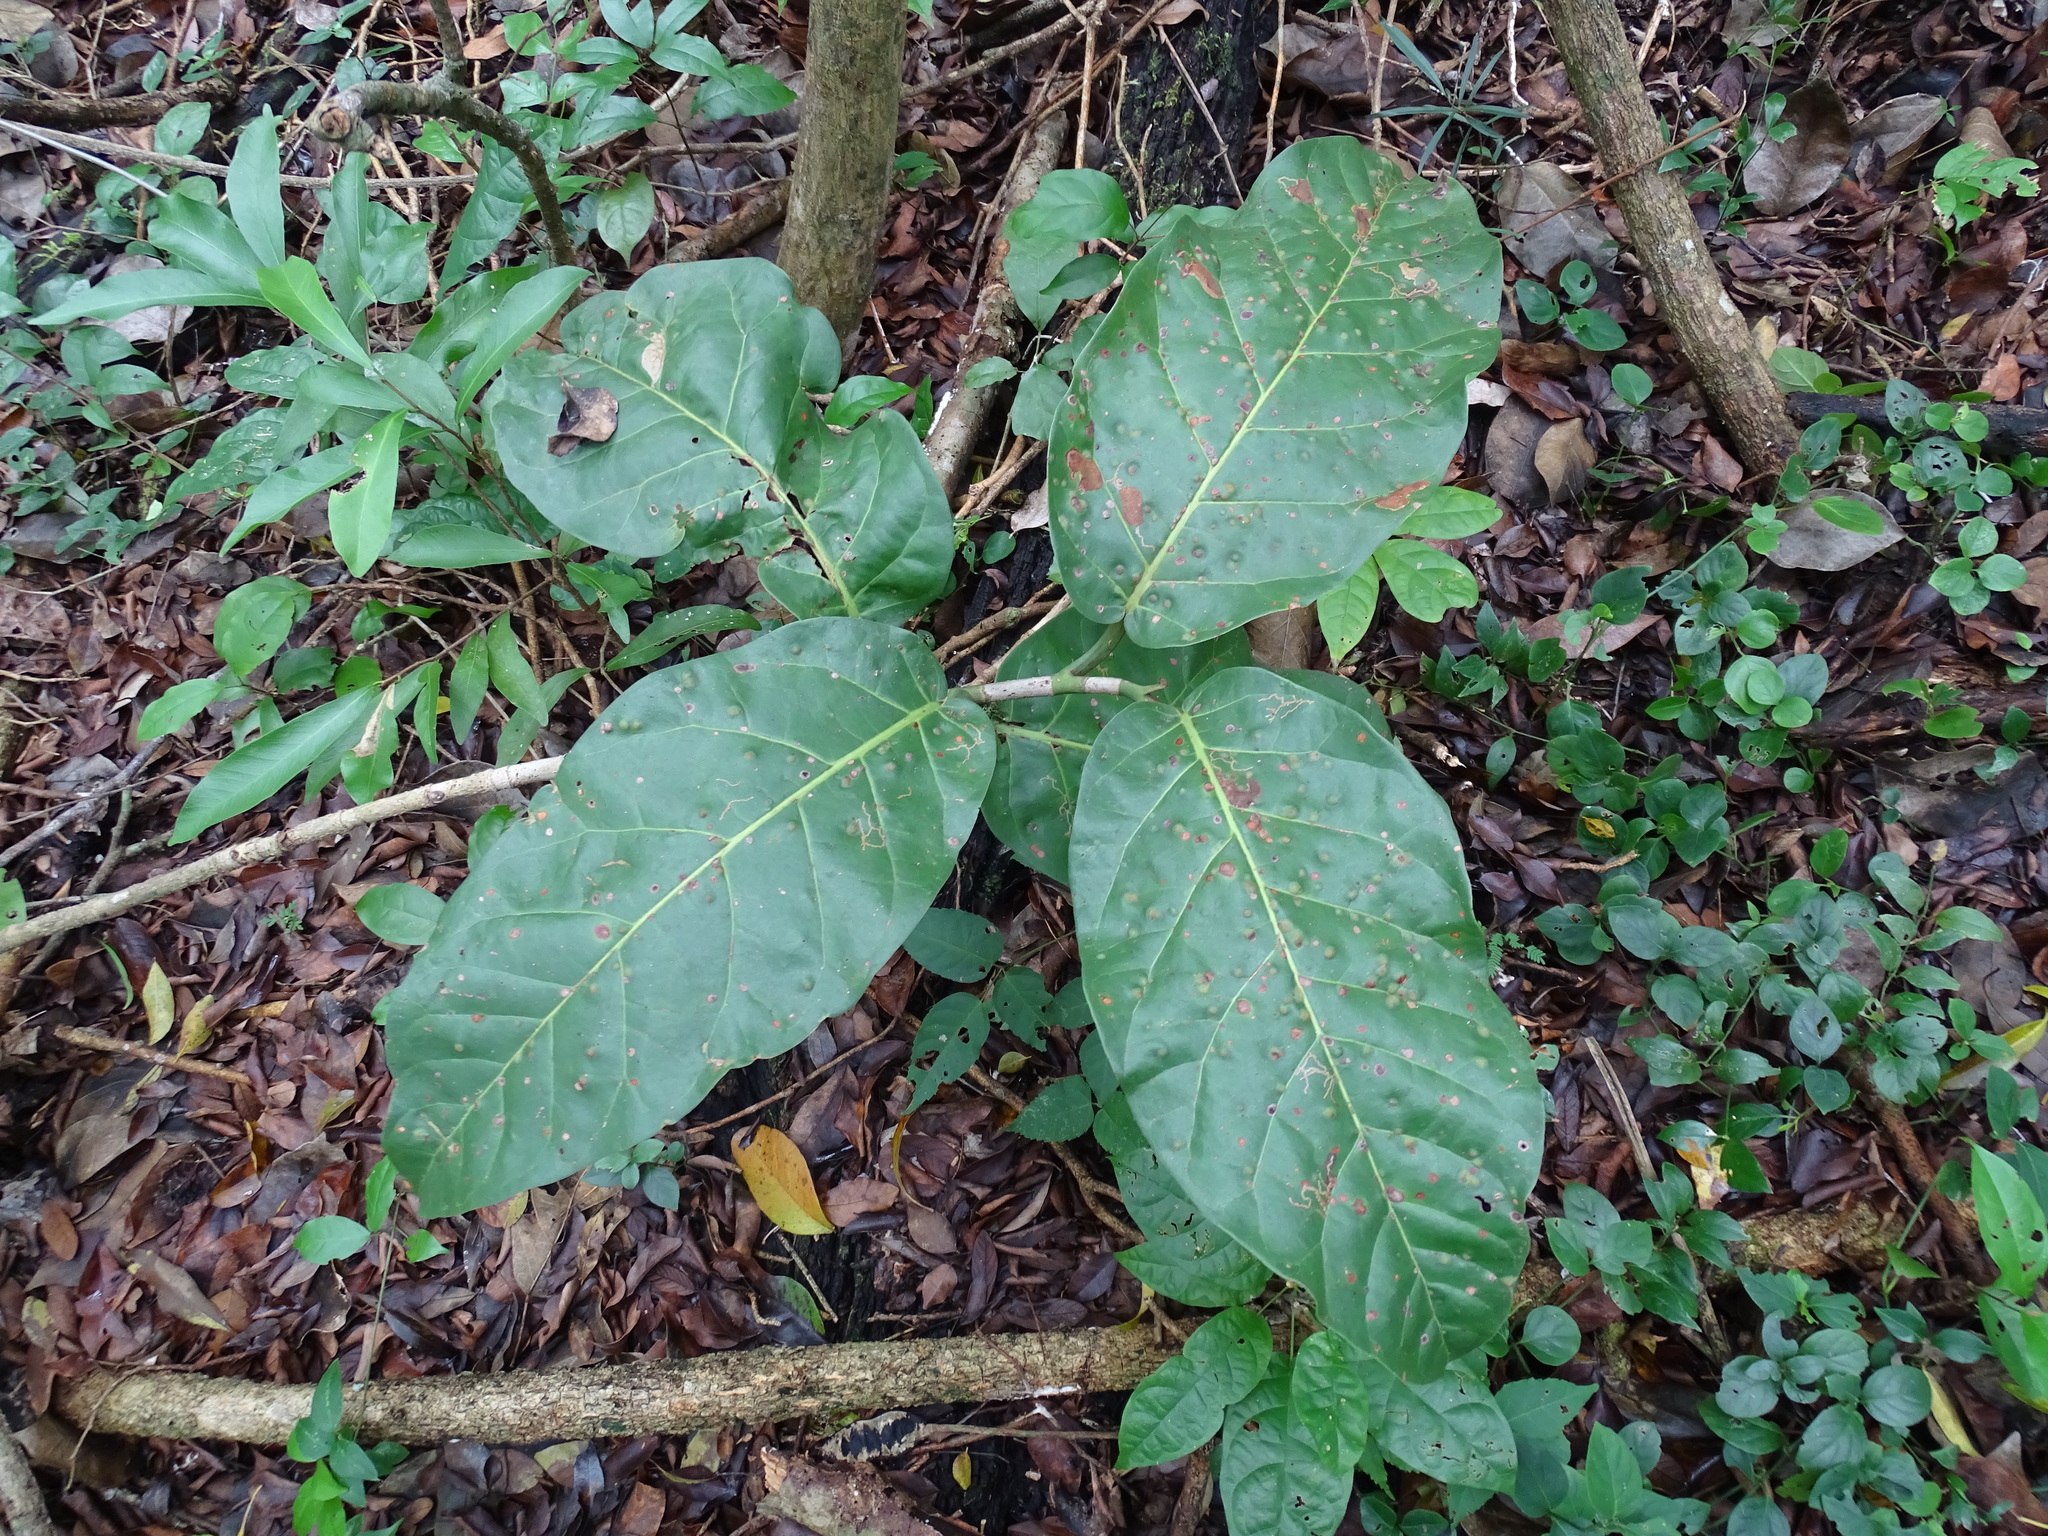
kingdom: Plantae
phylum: Tracheophyta
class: Magnoliopsida
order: Caryophyllales
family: Polygonaceae
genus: Coccoloba
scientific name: Coccoloba spicata
